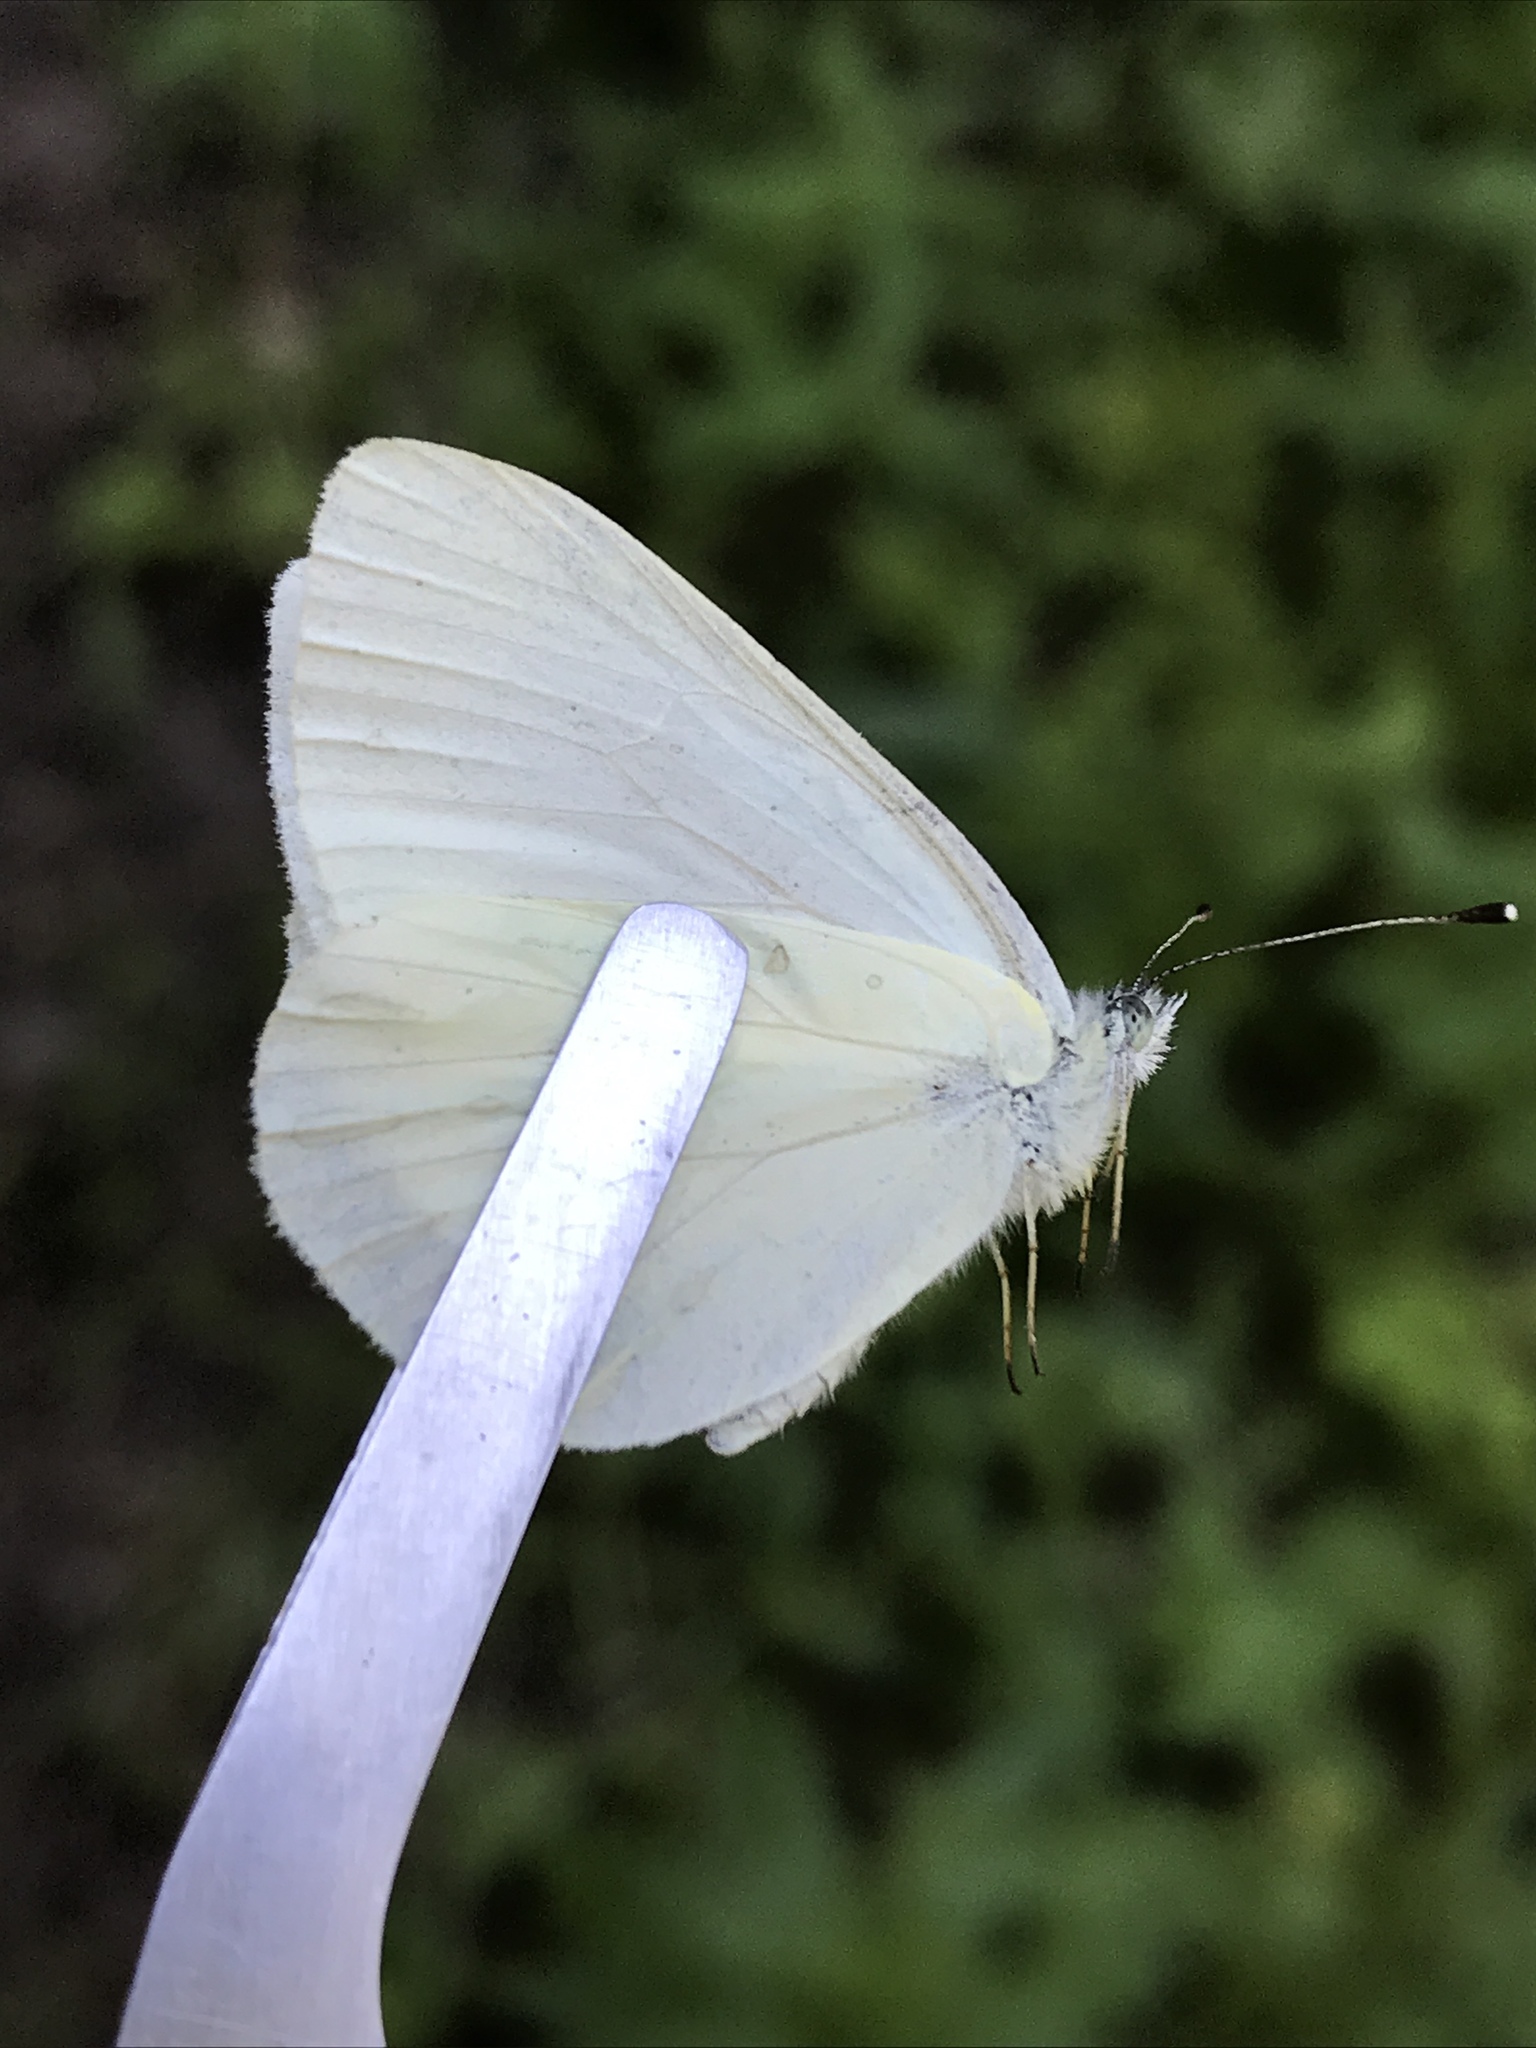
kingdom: Animalia
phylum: Arthropoda
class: Insecta
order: Lepidoptera
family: Pieridae
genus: Pieris
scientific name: Pieris marginalis
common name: Margined white
